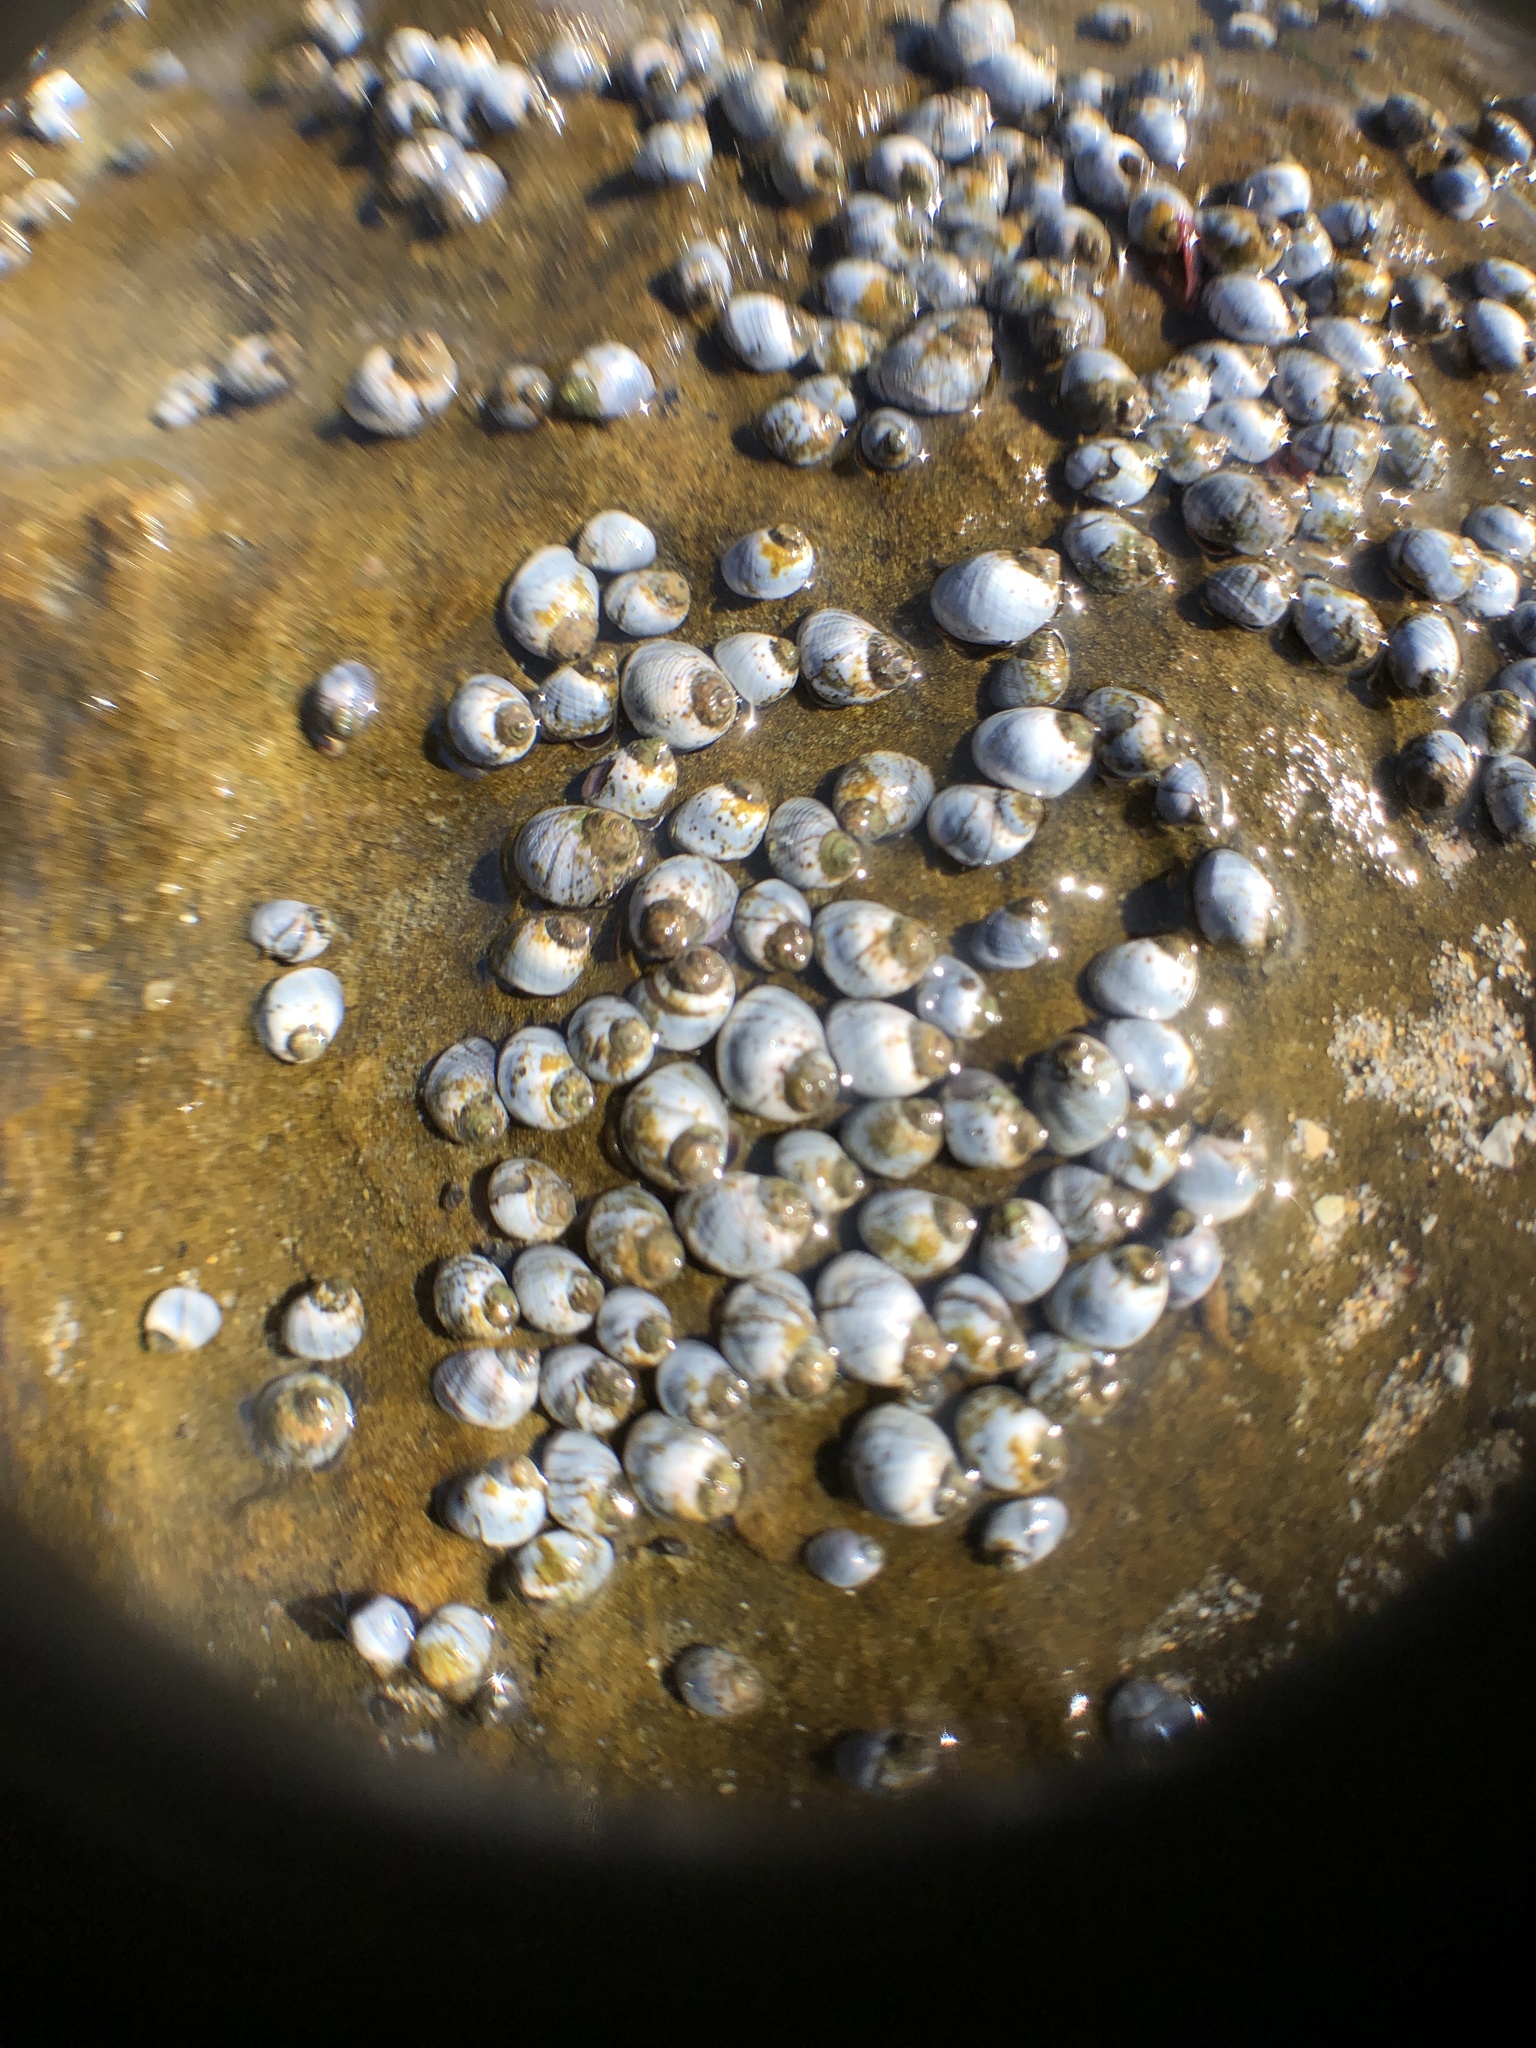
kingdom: Animalia
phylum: Mollusca
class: Gastropoda
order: Littorinimorpha
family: Littorinidae
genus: Austrolittorina
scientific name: Austrolittorina unifasciata
